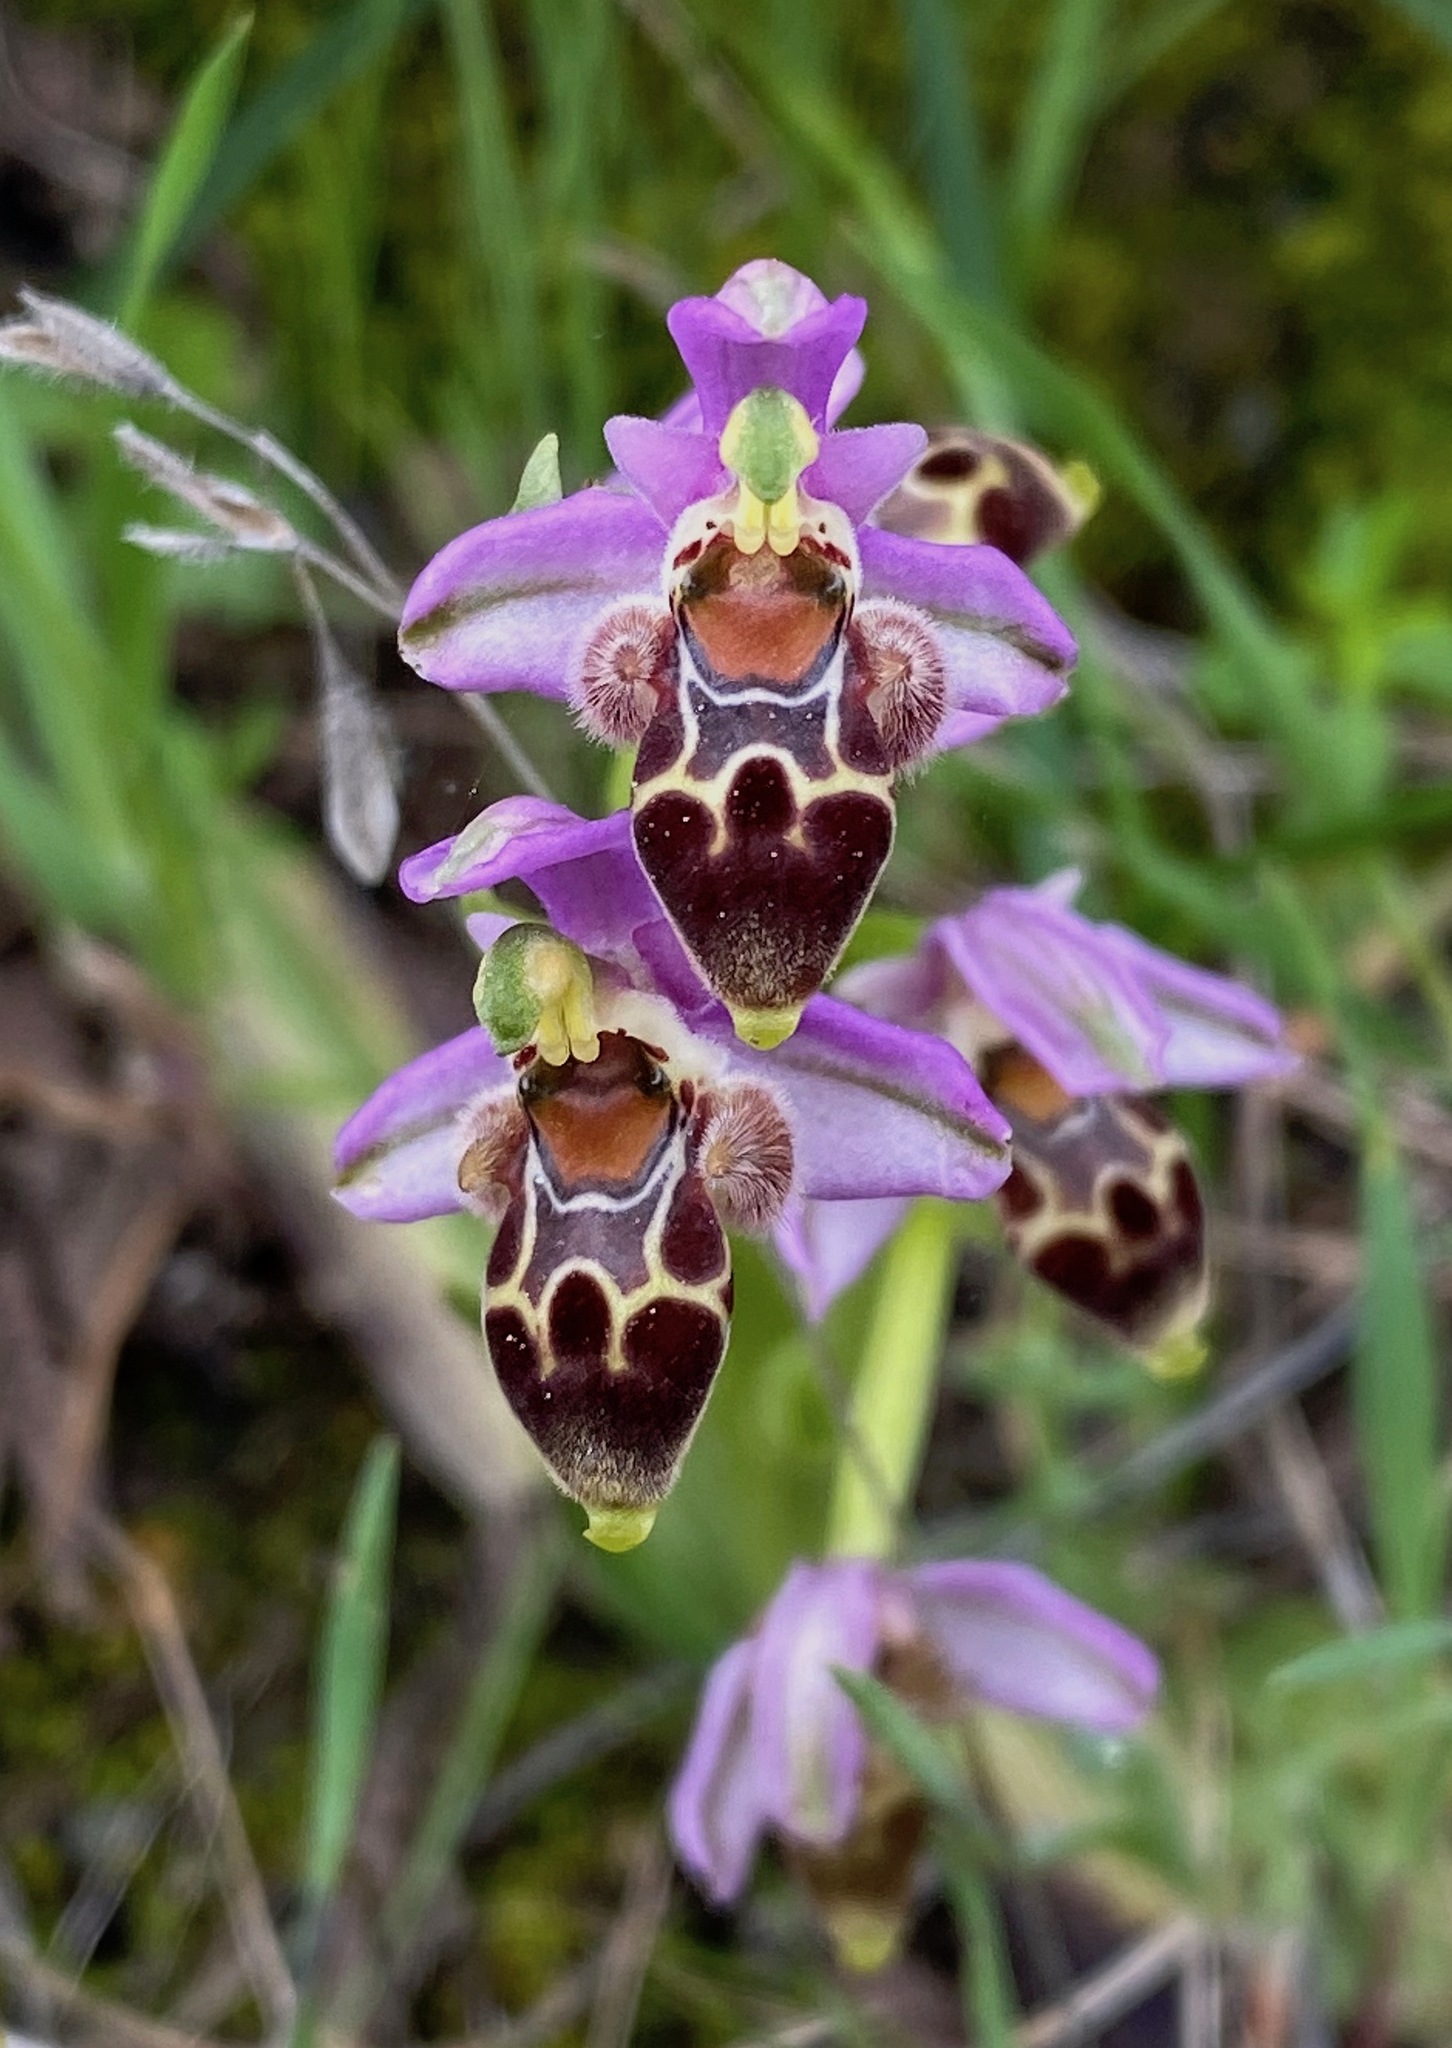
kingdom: Plantae
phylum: Tracheophyta
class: Liliopsida
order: Asparagales
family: Orchidaceae
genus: Ophrys
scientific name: Ophrys umbilicata
